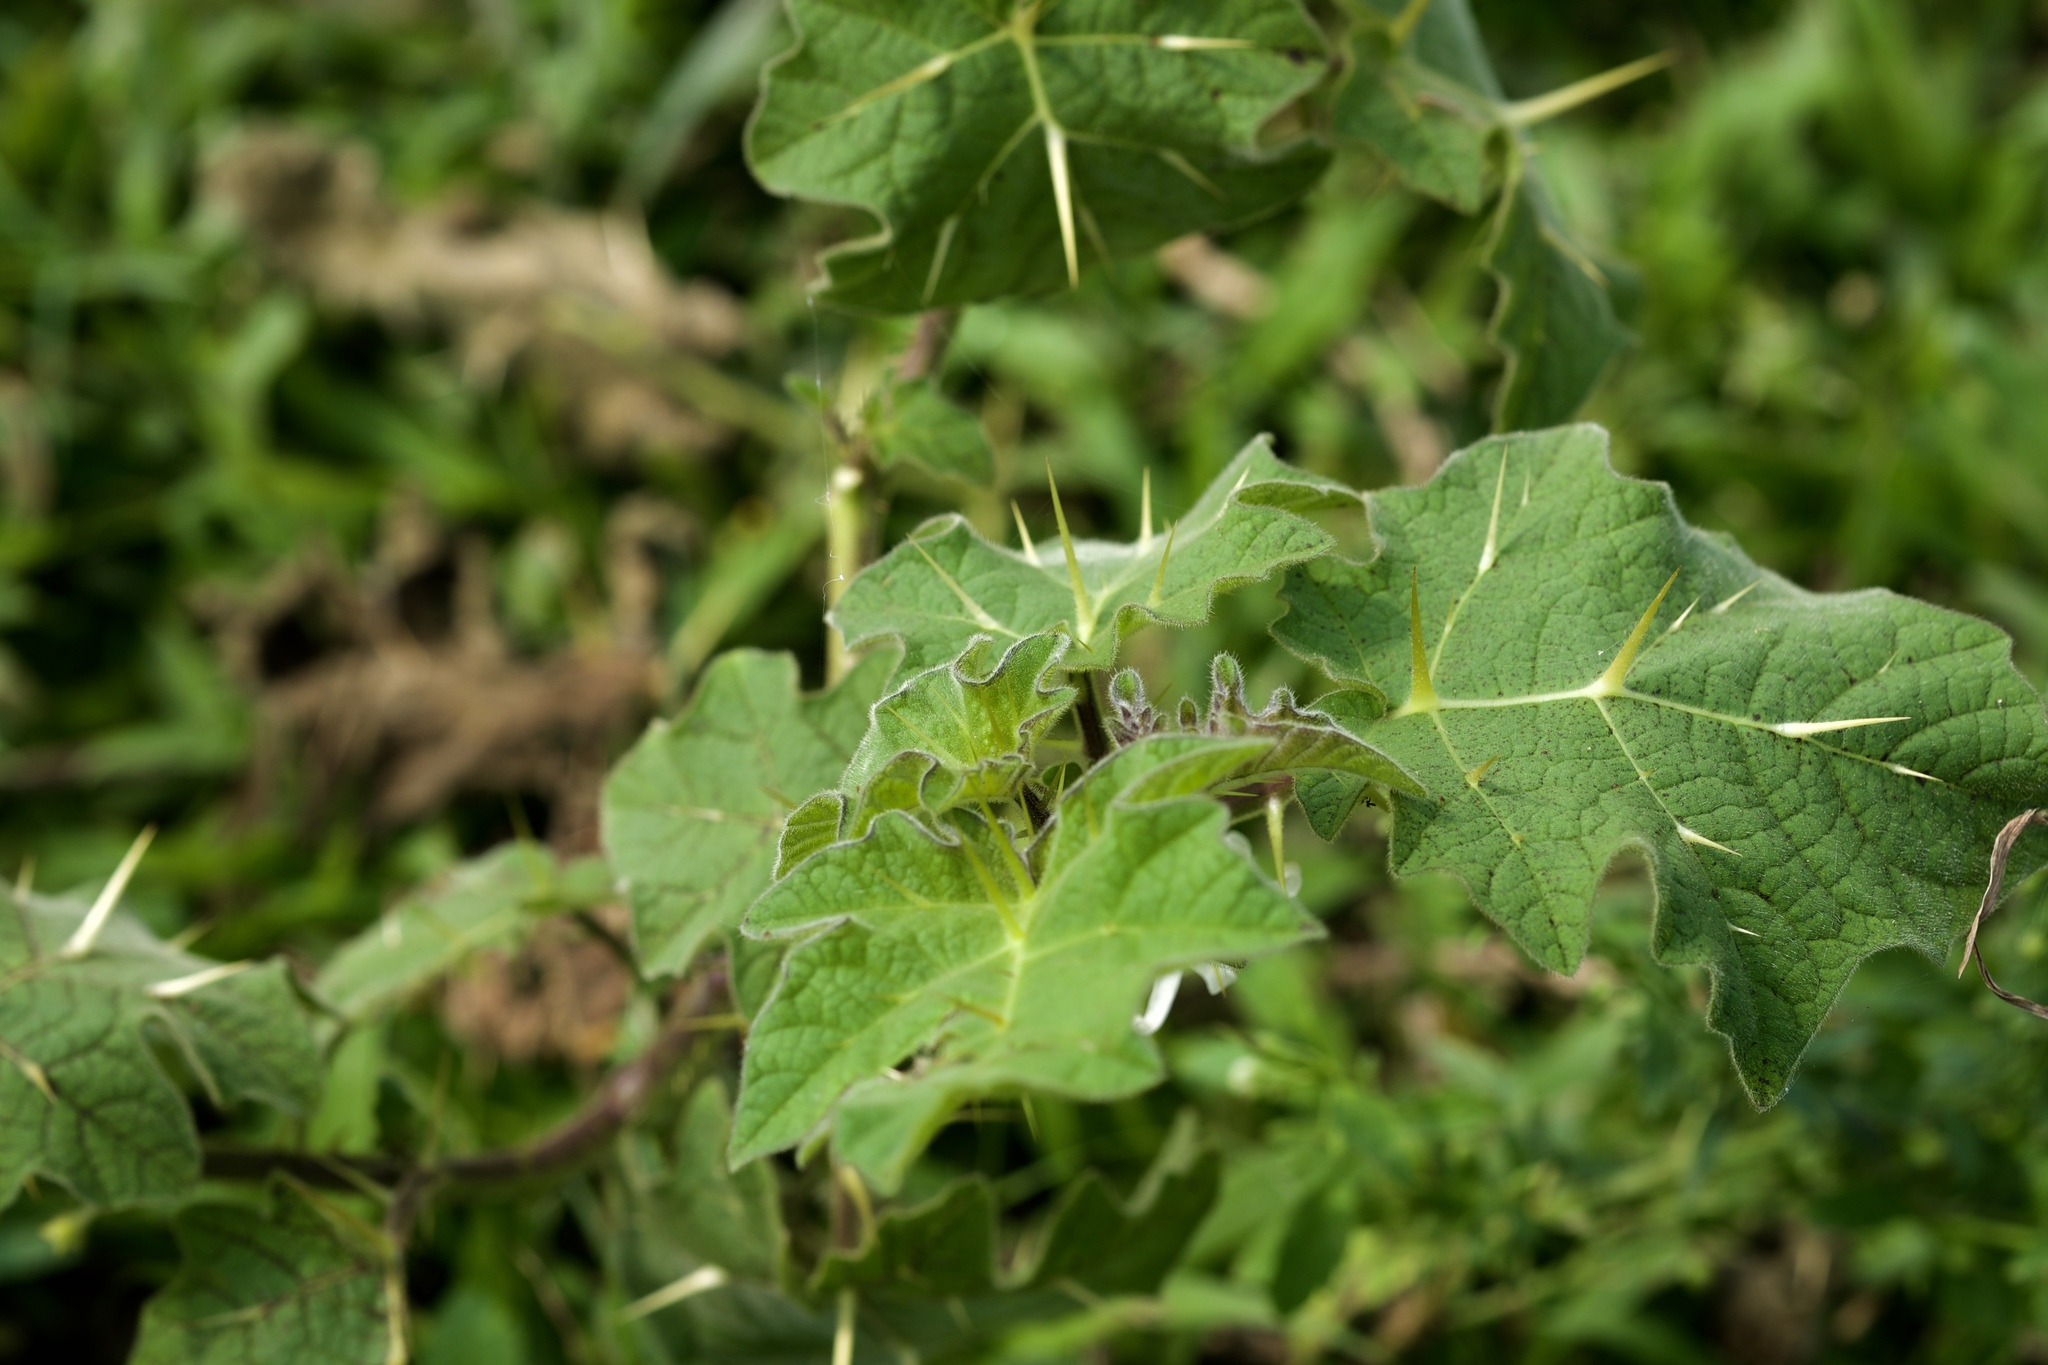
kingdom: Plantae
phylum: Tracheophyta
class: Magnoliopsida
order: Solanales
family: Solanaceae
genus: Solanum
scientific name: Solanum viarum
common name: Tropical soda apple
